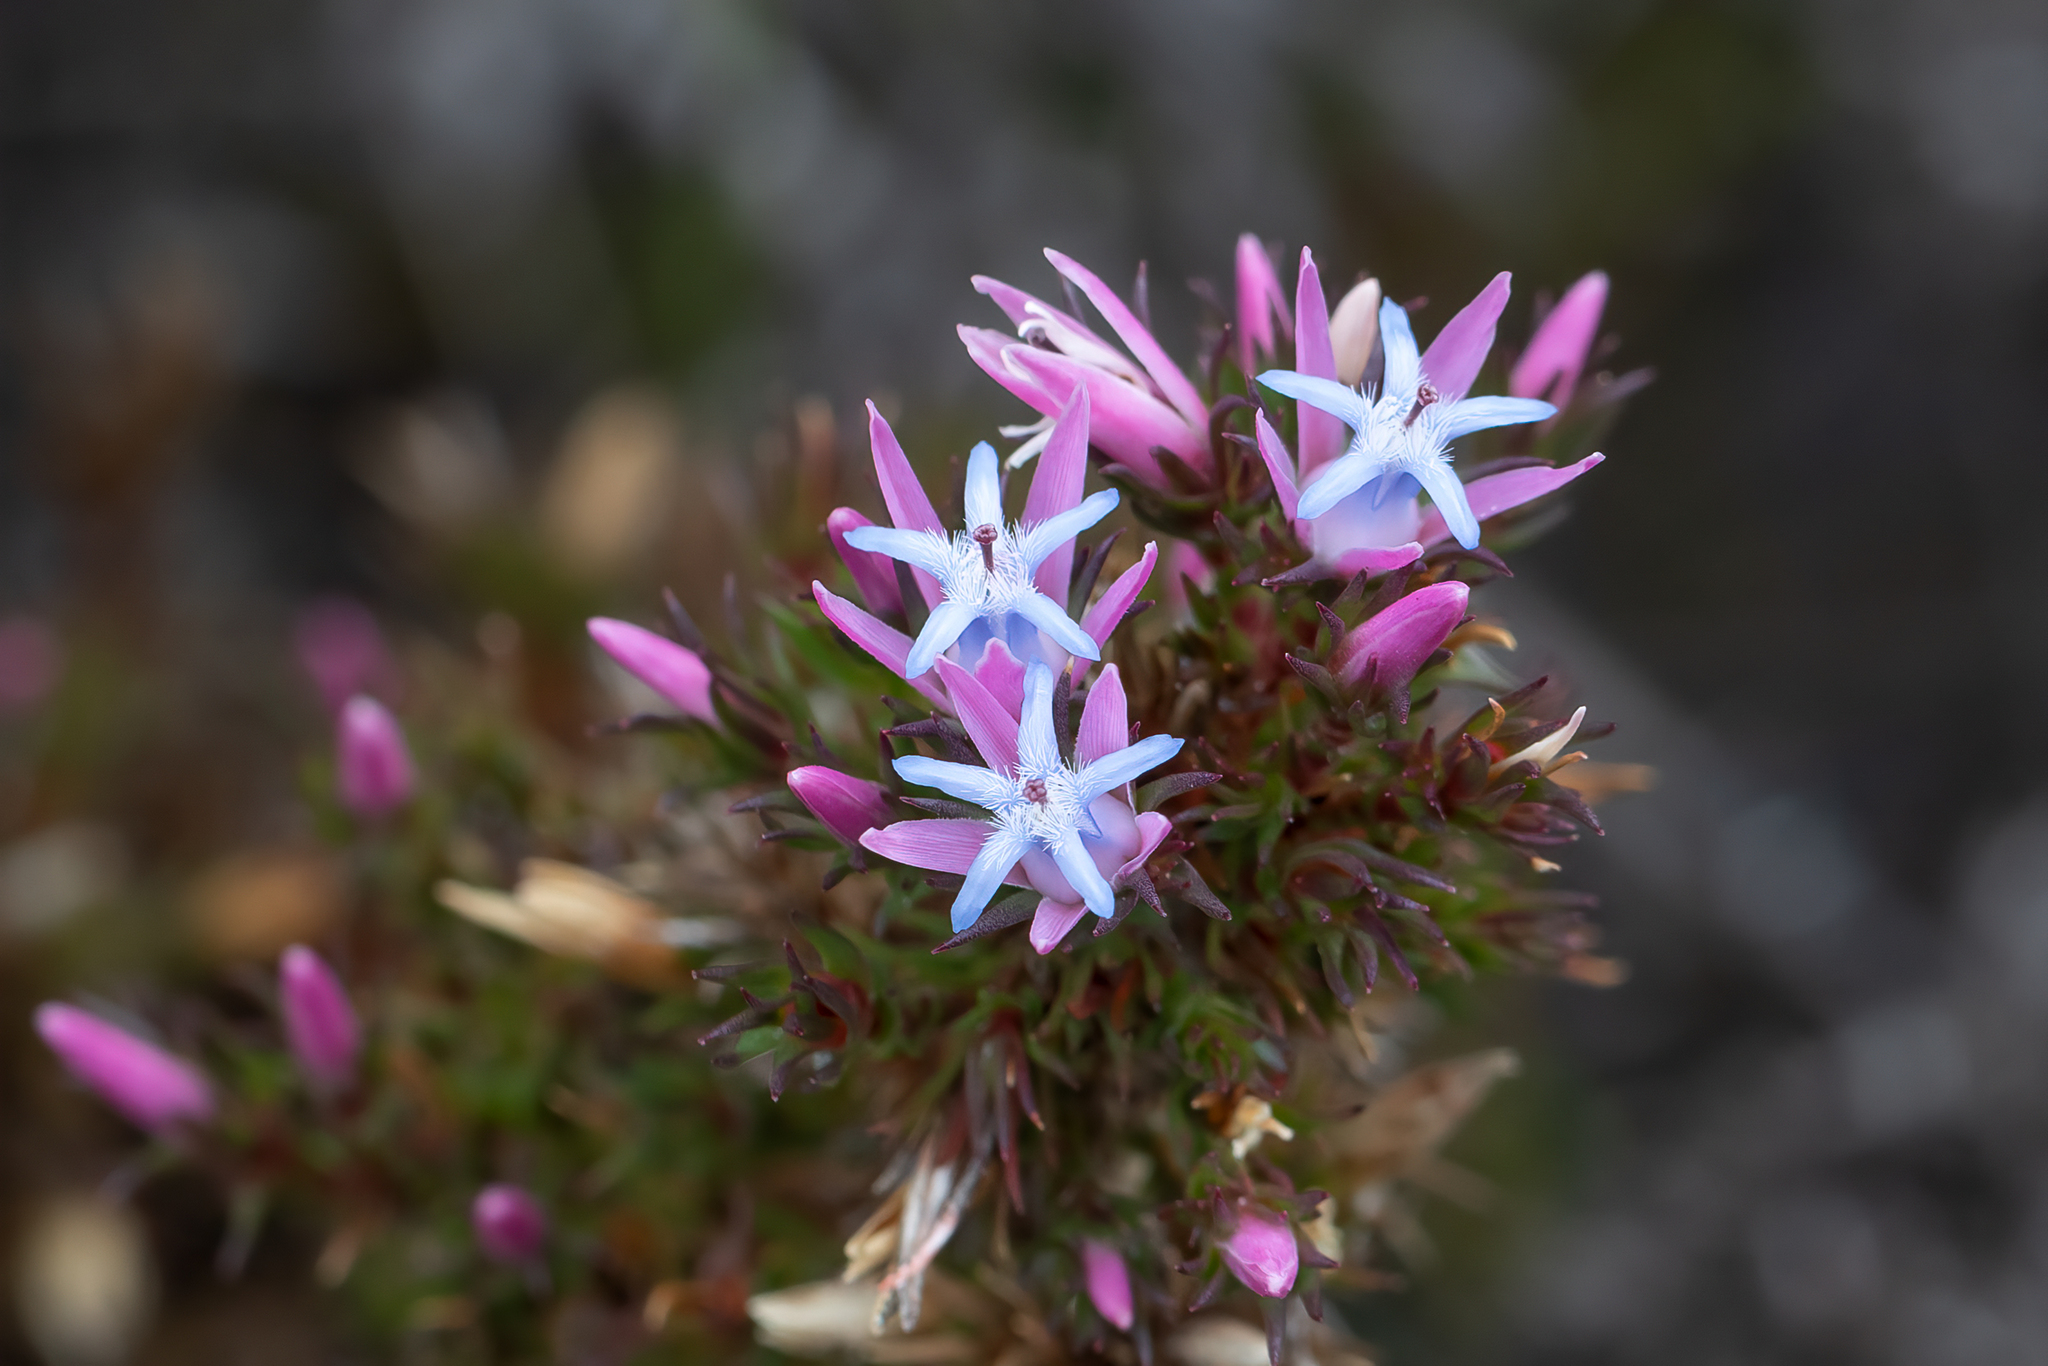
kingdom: Plantae
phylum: Tracheophyta
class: Magnoliopsida
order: Ericales
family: Ericaceae
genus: Andersonia
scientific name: Andersonia caerulea
